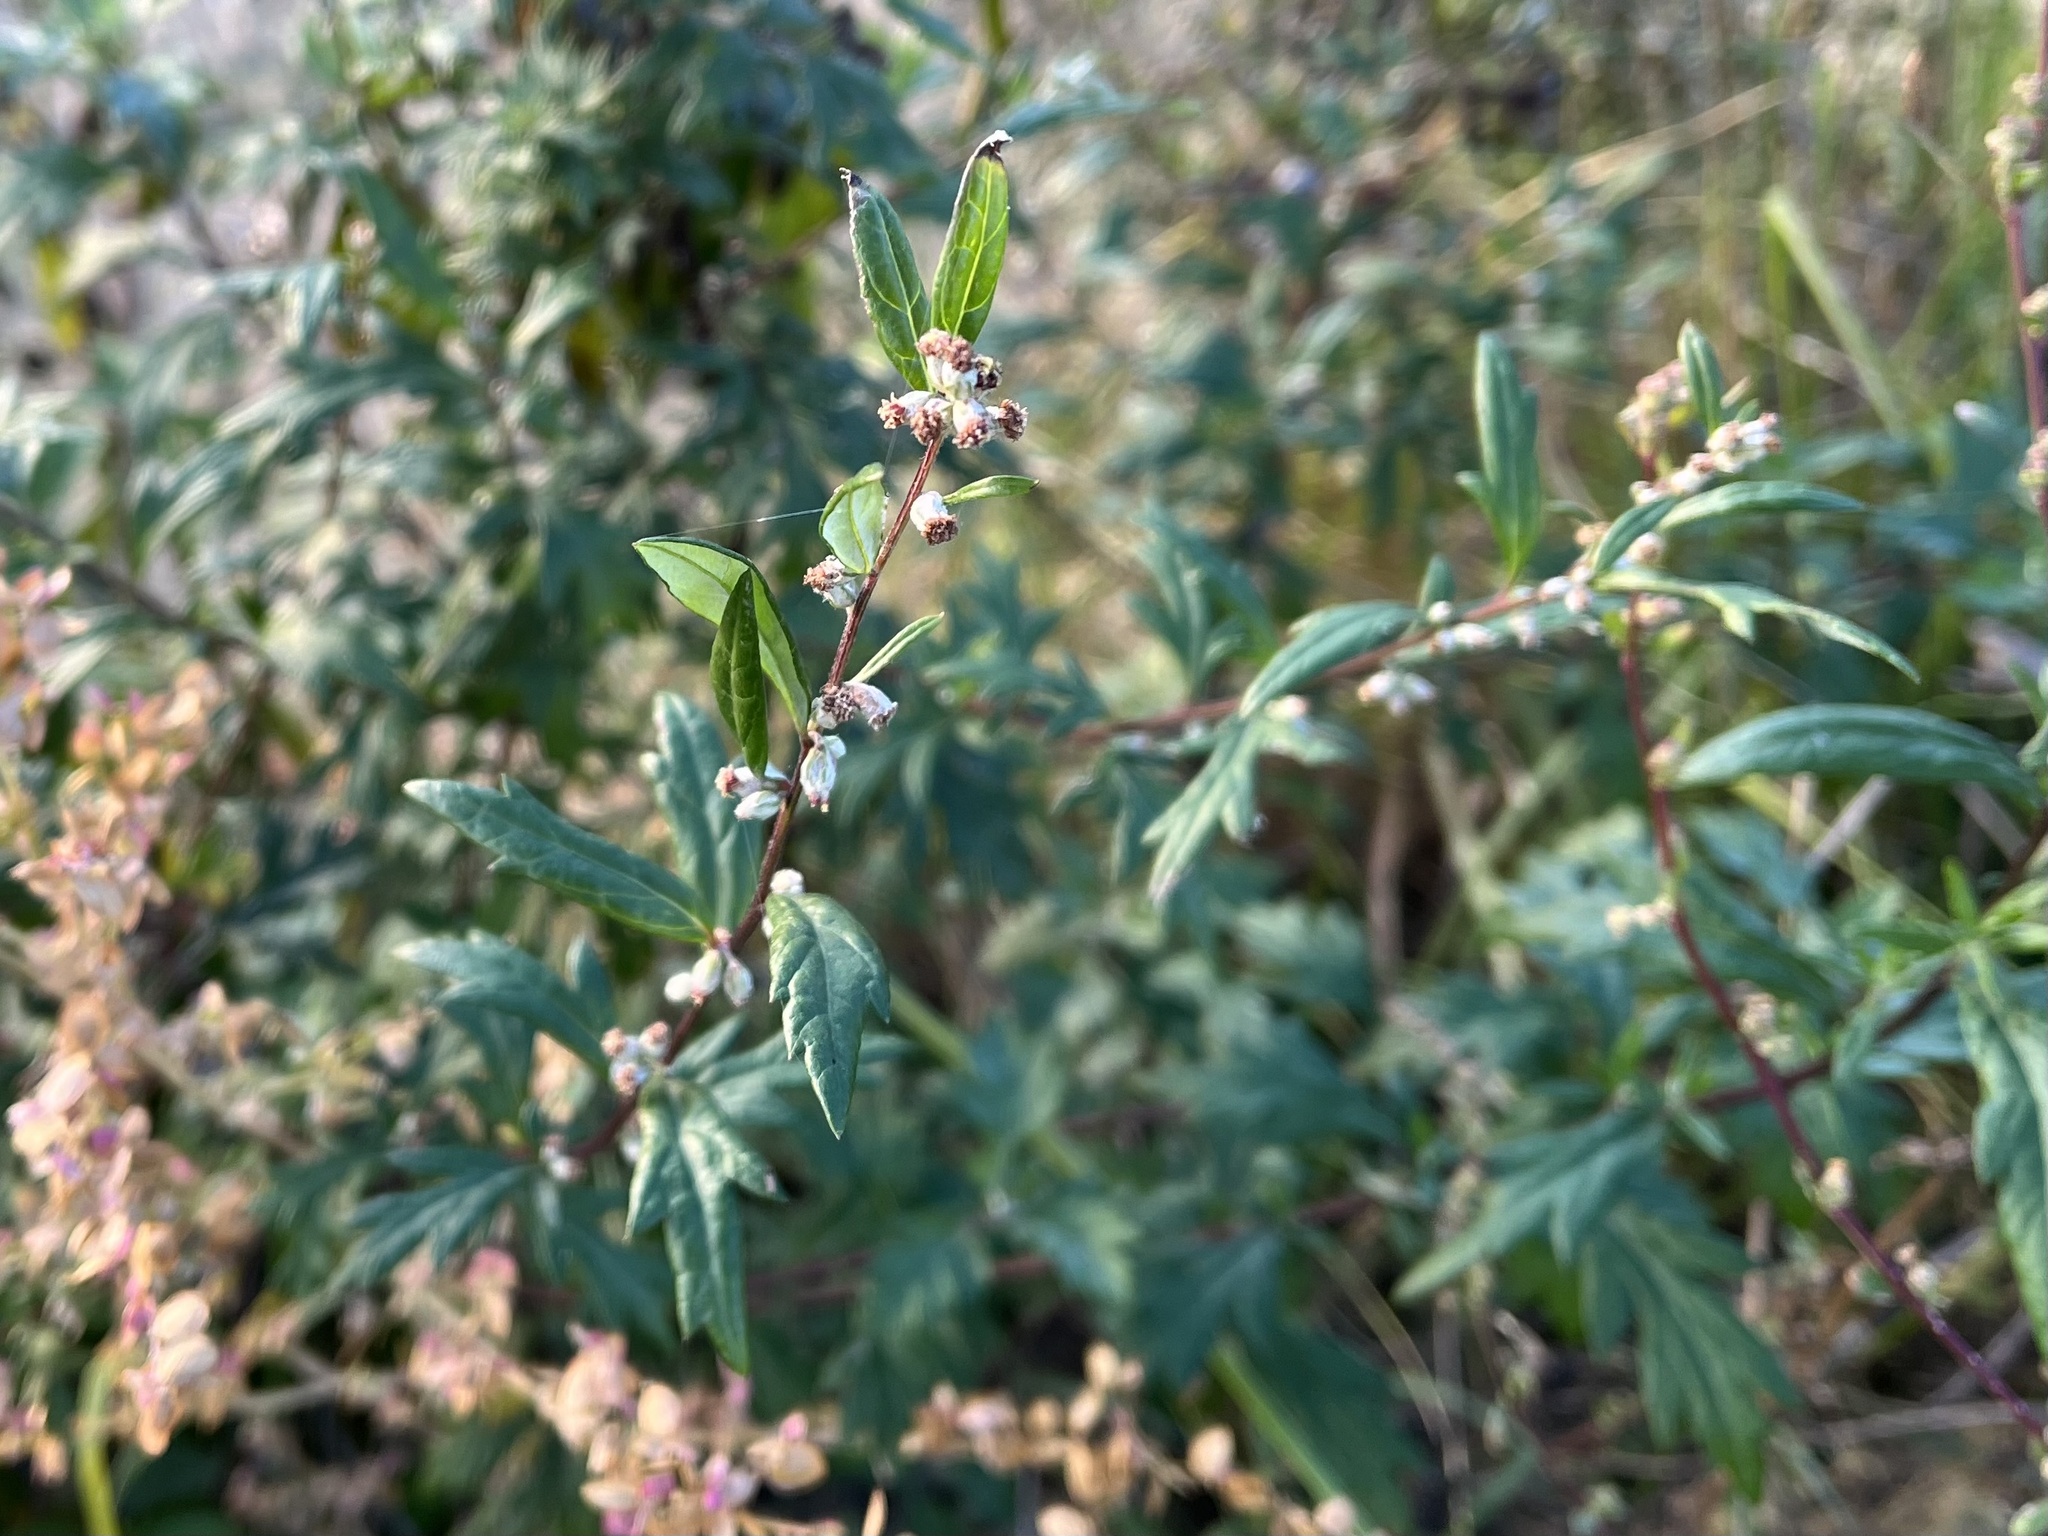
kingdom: Plantae
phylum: Tracheophyta
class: Magnoliopsida
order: Asterales
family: Asteraceae
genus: Artemisia
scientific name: Artemisia vulgaris
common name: Mugwort
